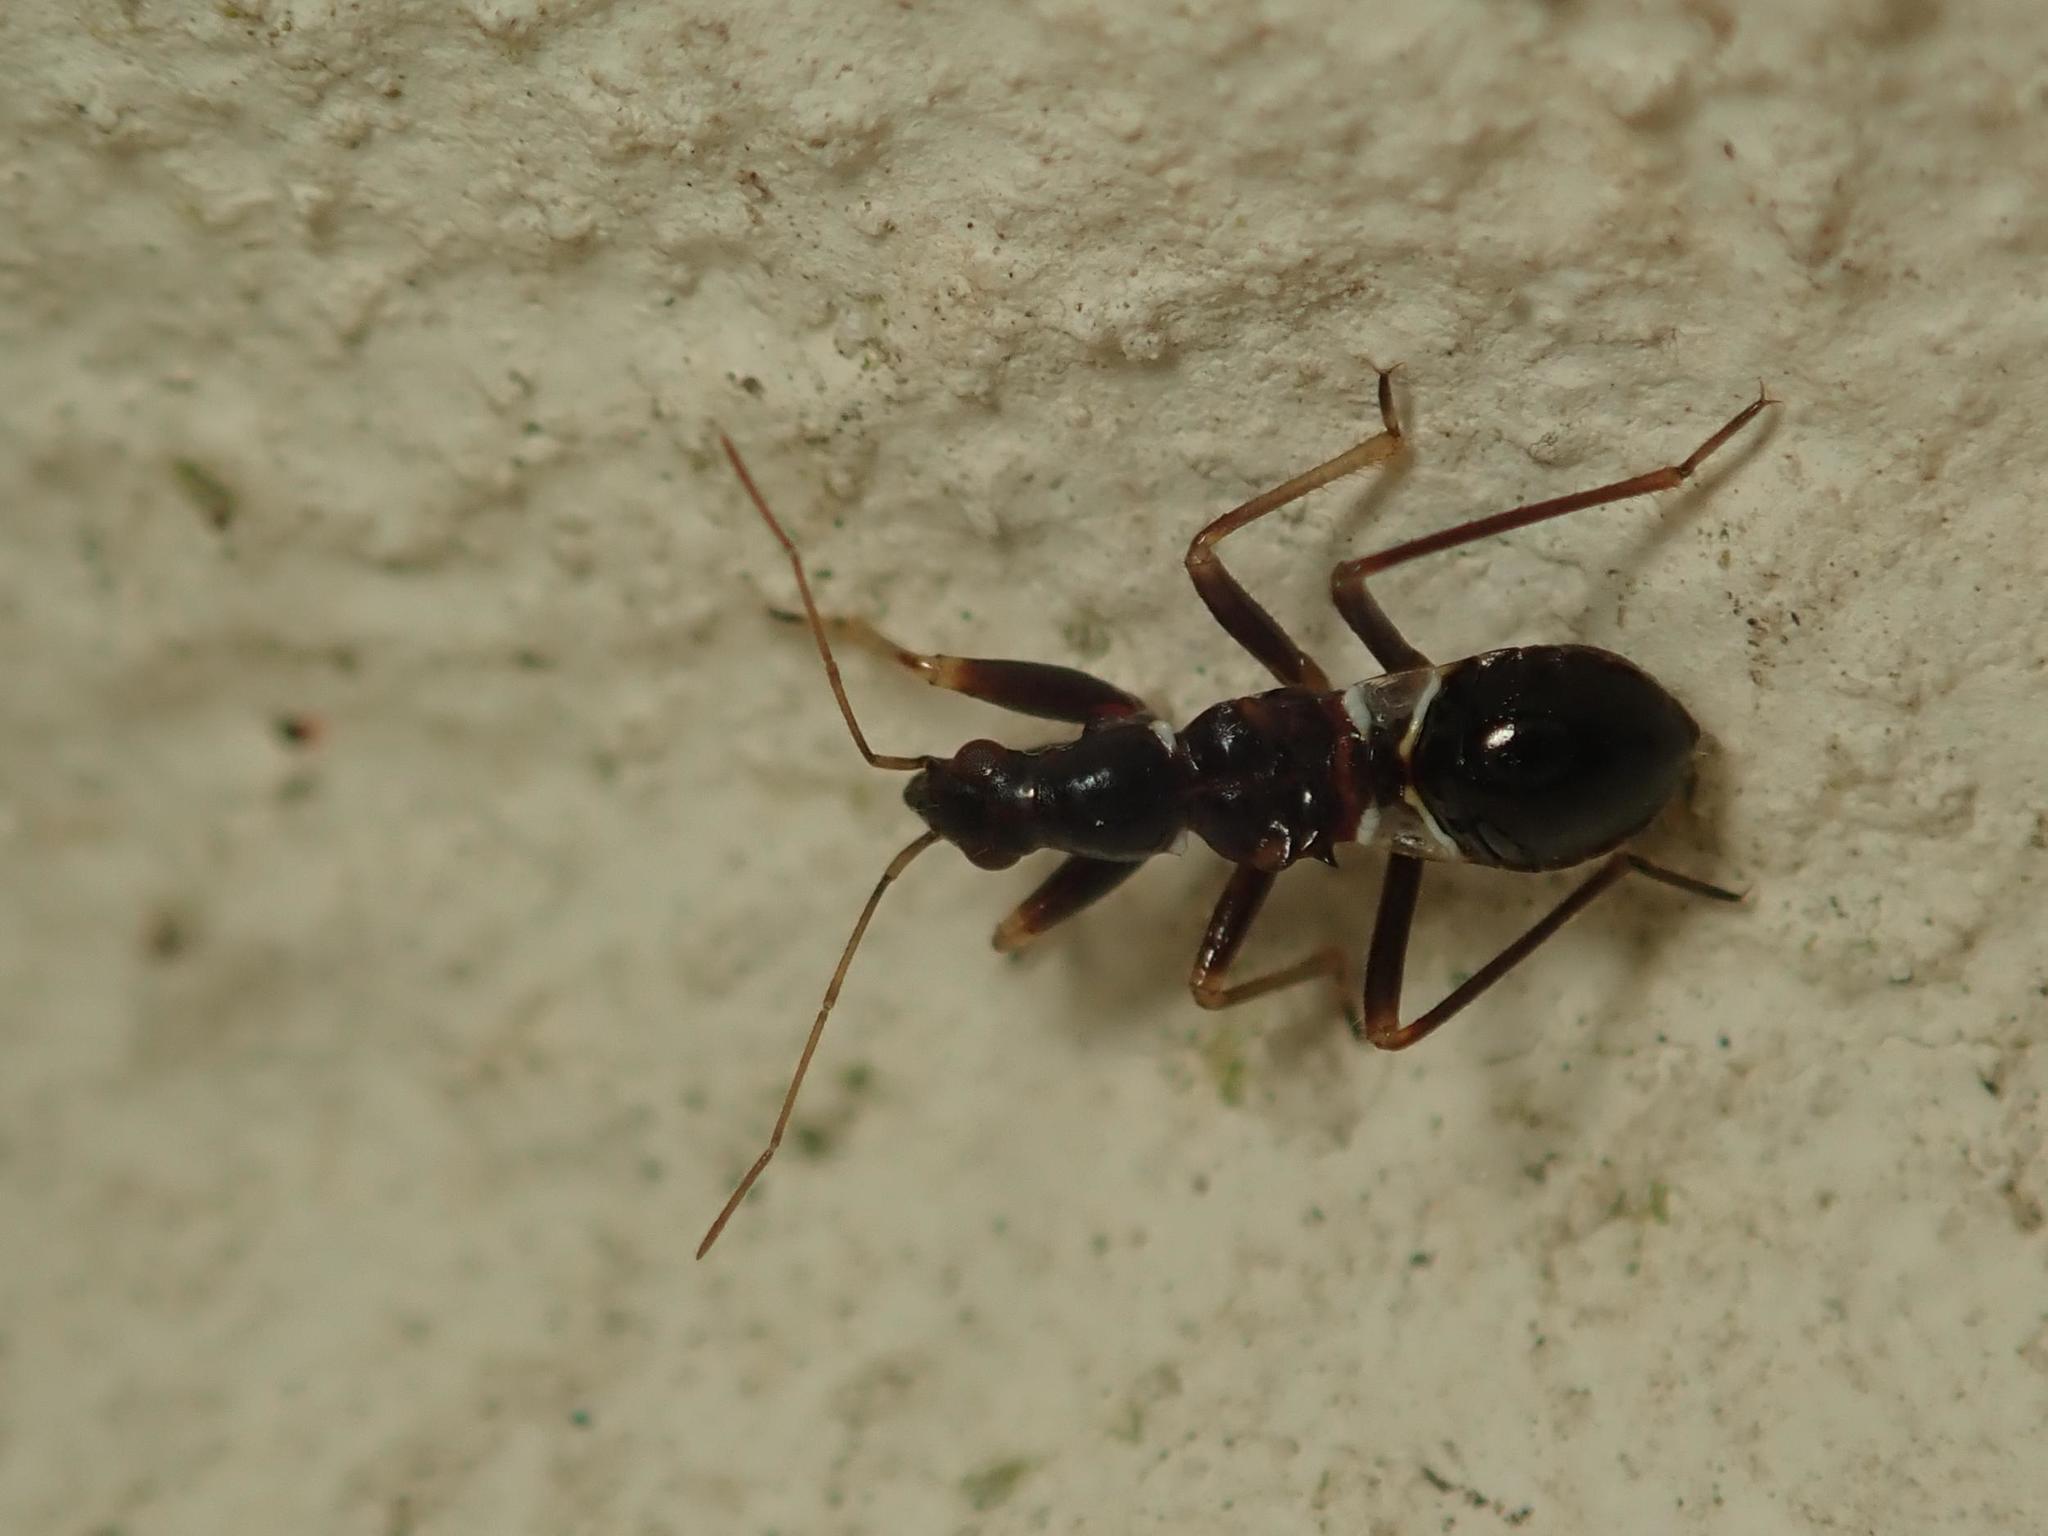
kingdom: Animalia
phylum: Arthropoda
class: Insecta
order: Hemiptera
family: Nabidae
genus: Himacerus
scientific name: Himacerus mirmicoides
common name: Ant damsel bug
